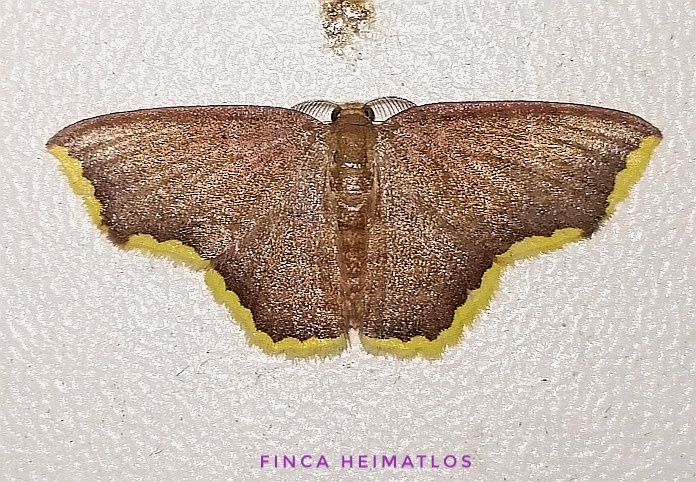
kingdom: Animalia
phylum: Arthropoda
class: Insecta
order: Lepidoptera
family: Geometridae
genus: Eois
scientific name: Eois thetisaria
